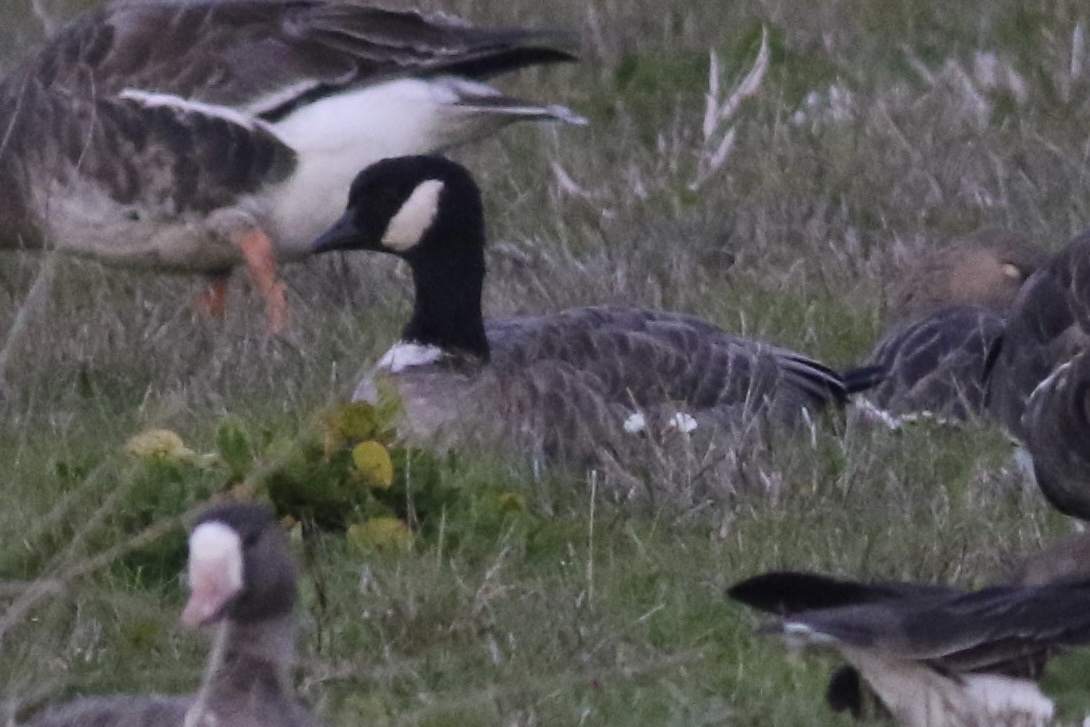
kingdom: Animalia
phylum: Chordata
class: Aves
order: Anseriformes
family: Anatidae
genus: Branta
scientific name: Branta hutchinsii
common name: Cackling goose
